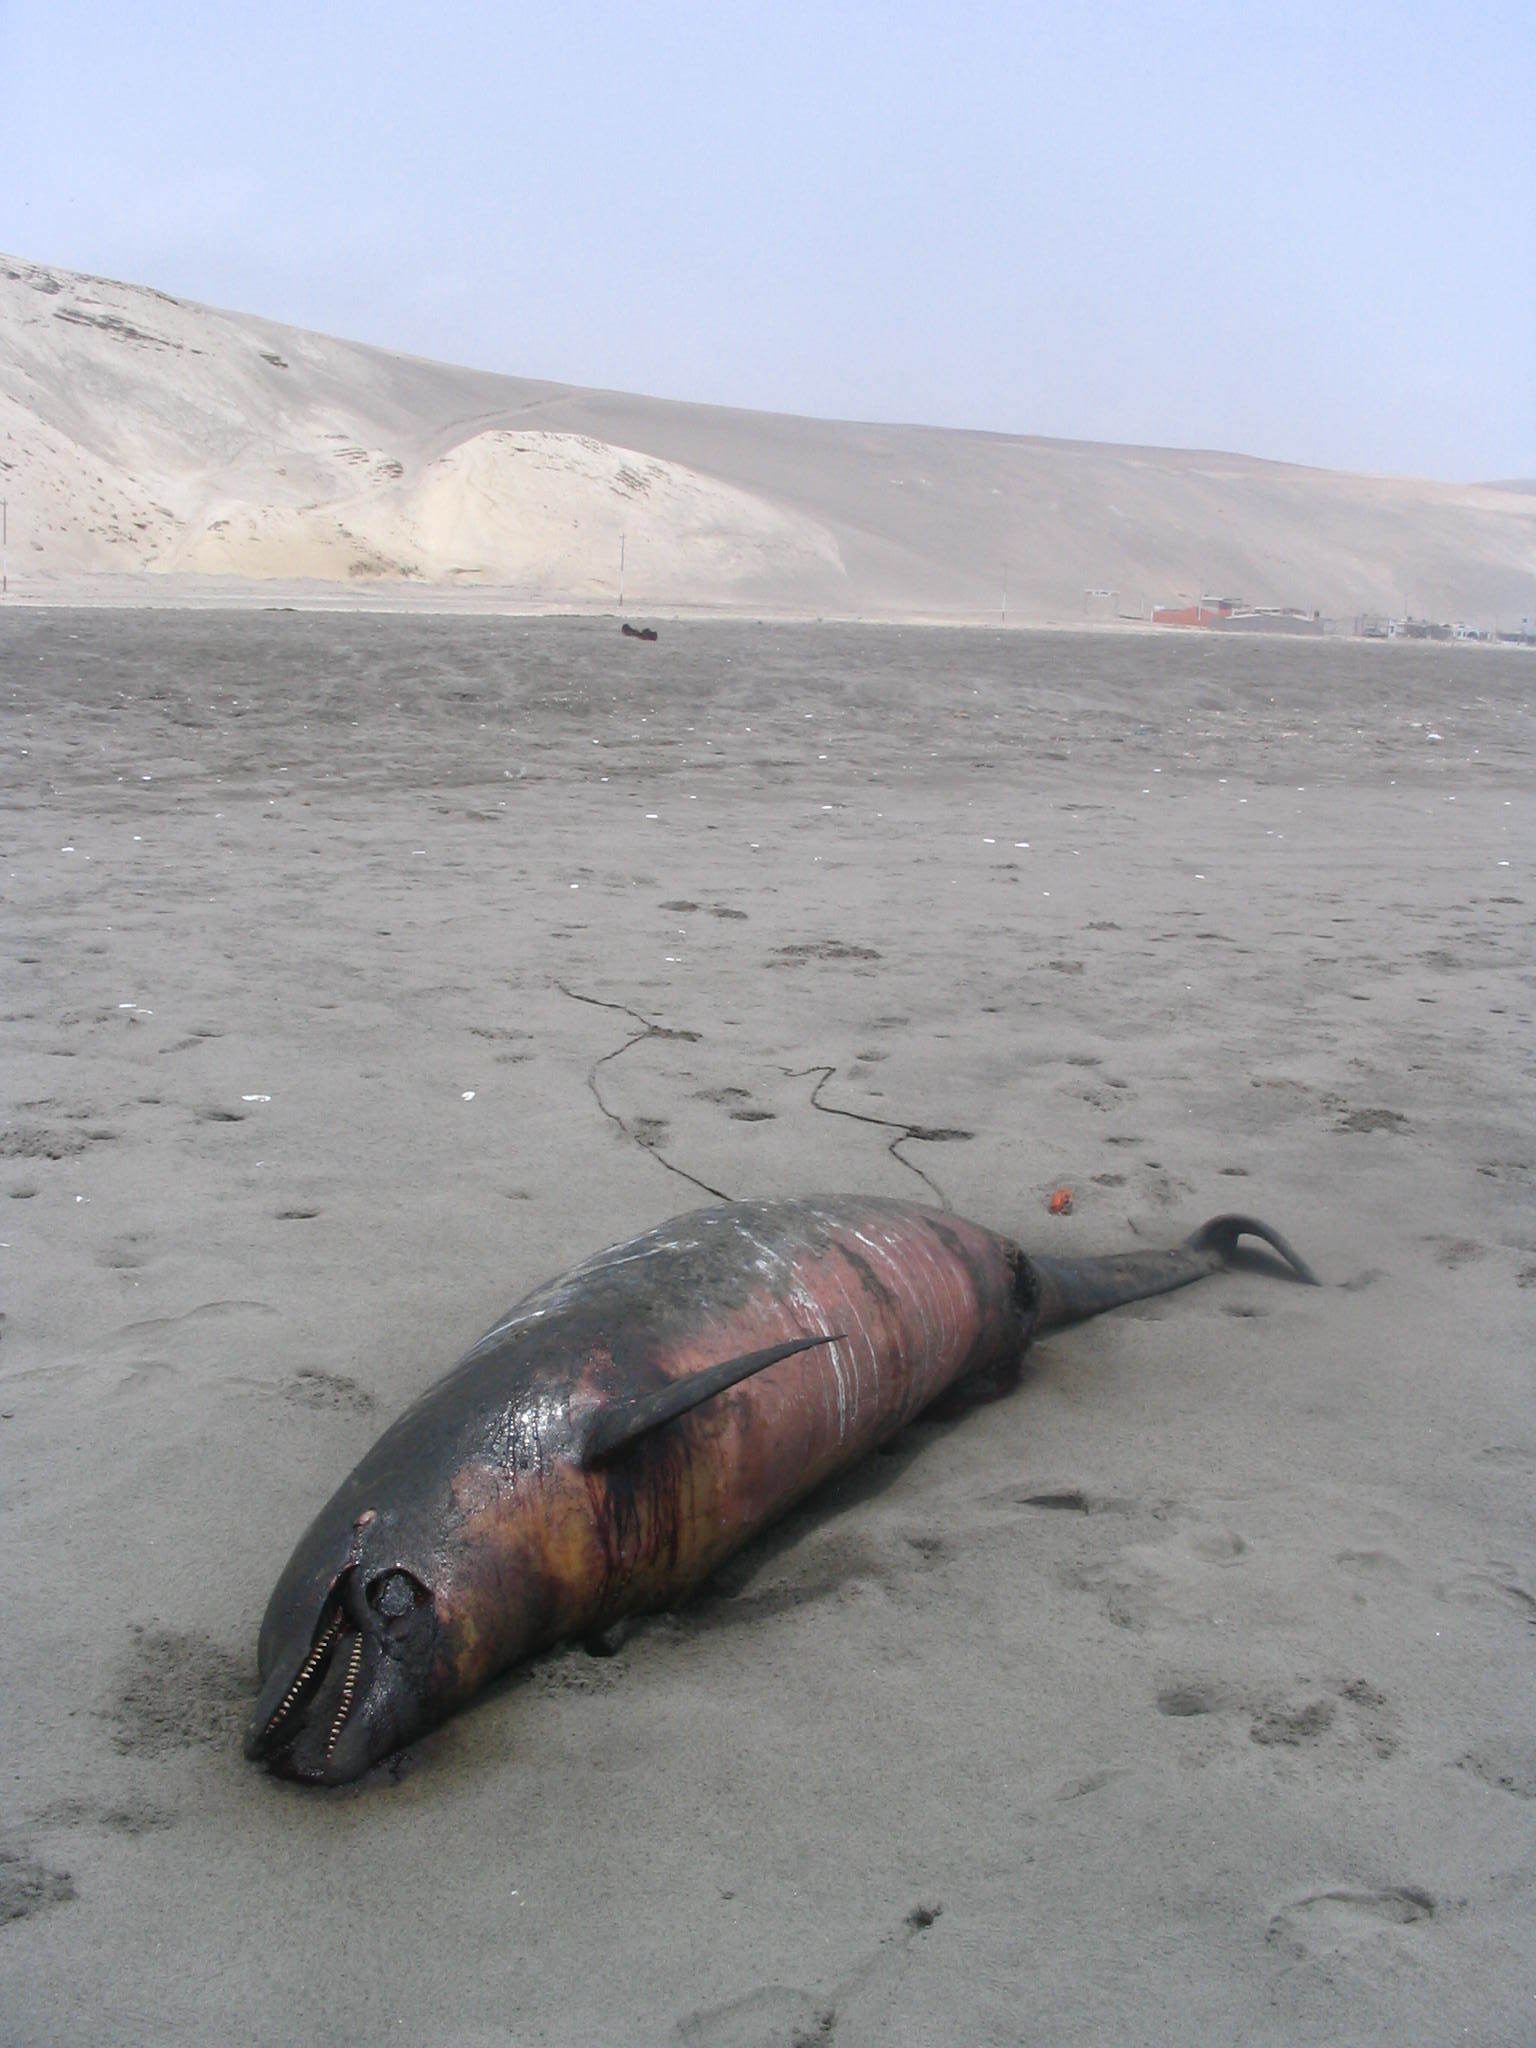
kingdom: Animalia
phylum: Chordata
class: Mammalia
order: Cetacea
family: Delphinidae
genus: Tursiops
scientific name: Tursiops truncatus
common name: Bottlenose dolphin
